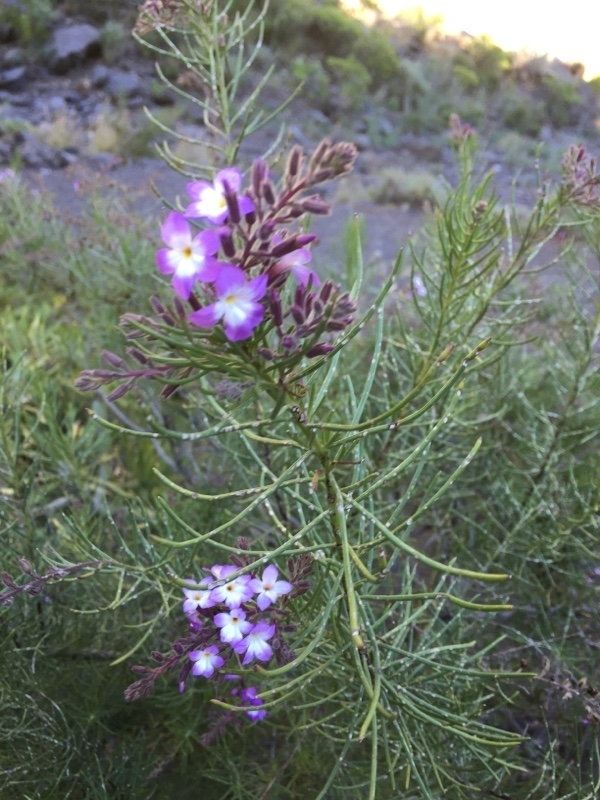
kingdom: Plantae
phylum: Tracheophyta
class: Magnoliopsida
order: Lamiales
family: Plantaginaceae
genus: Campylanthus
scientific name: Campylanthus salsoloides
